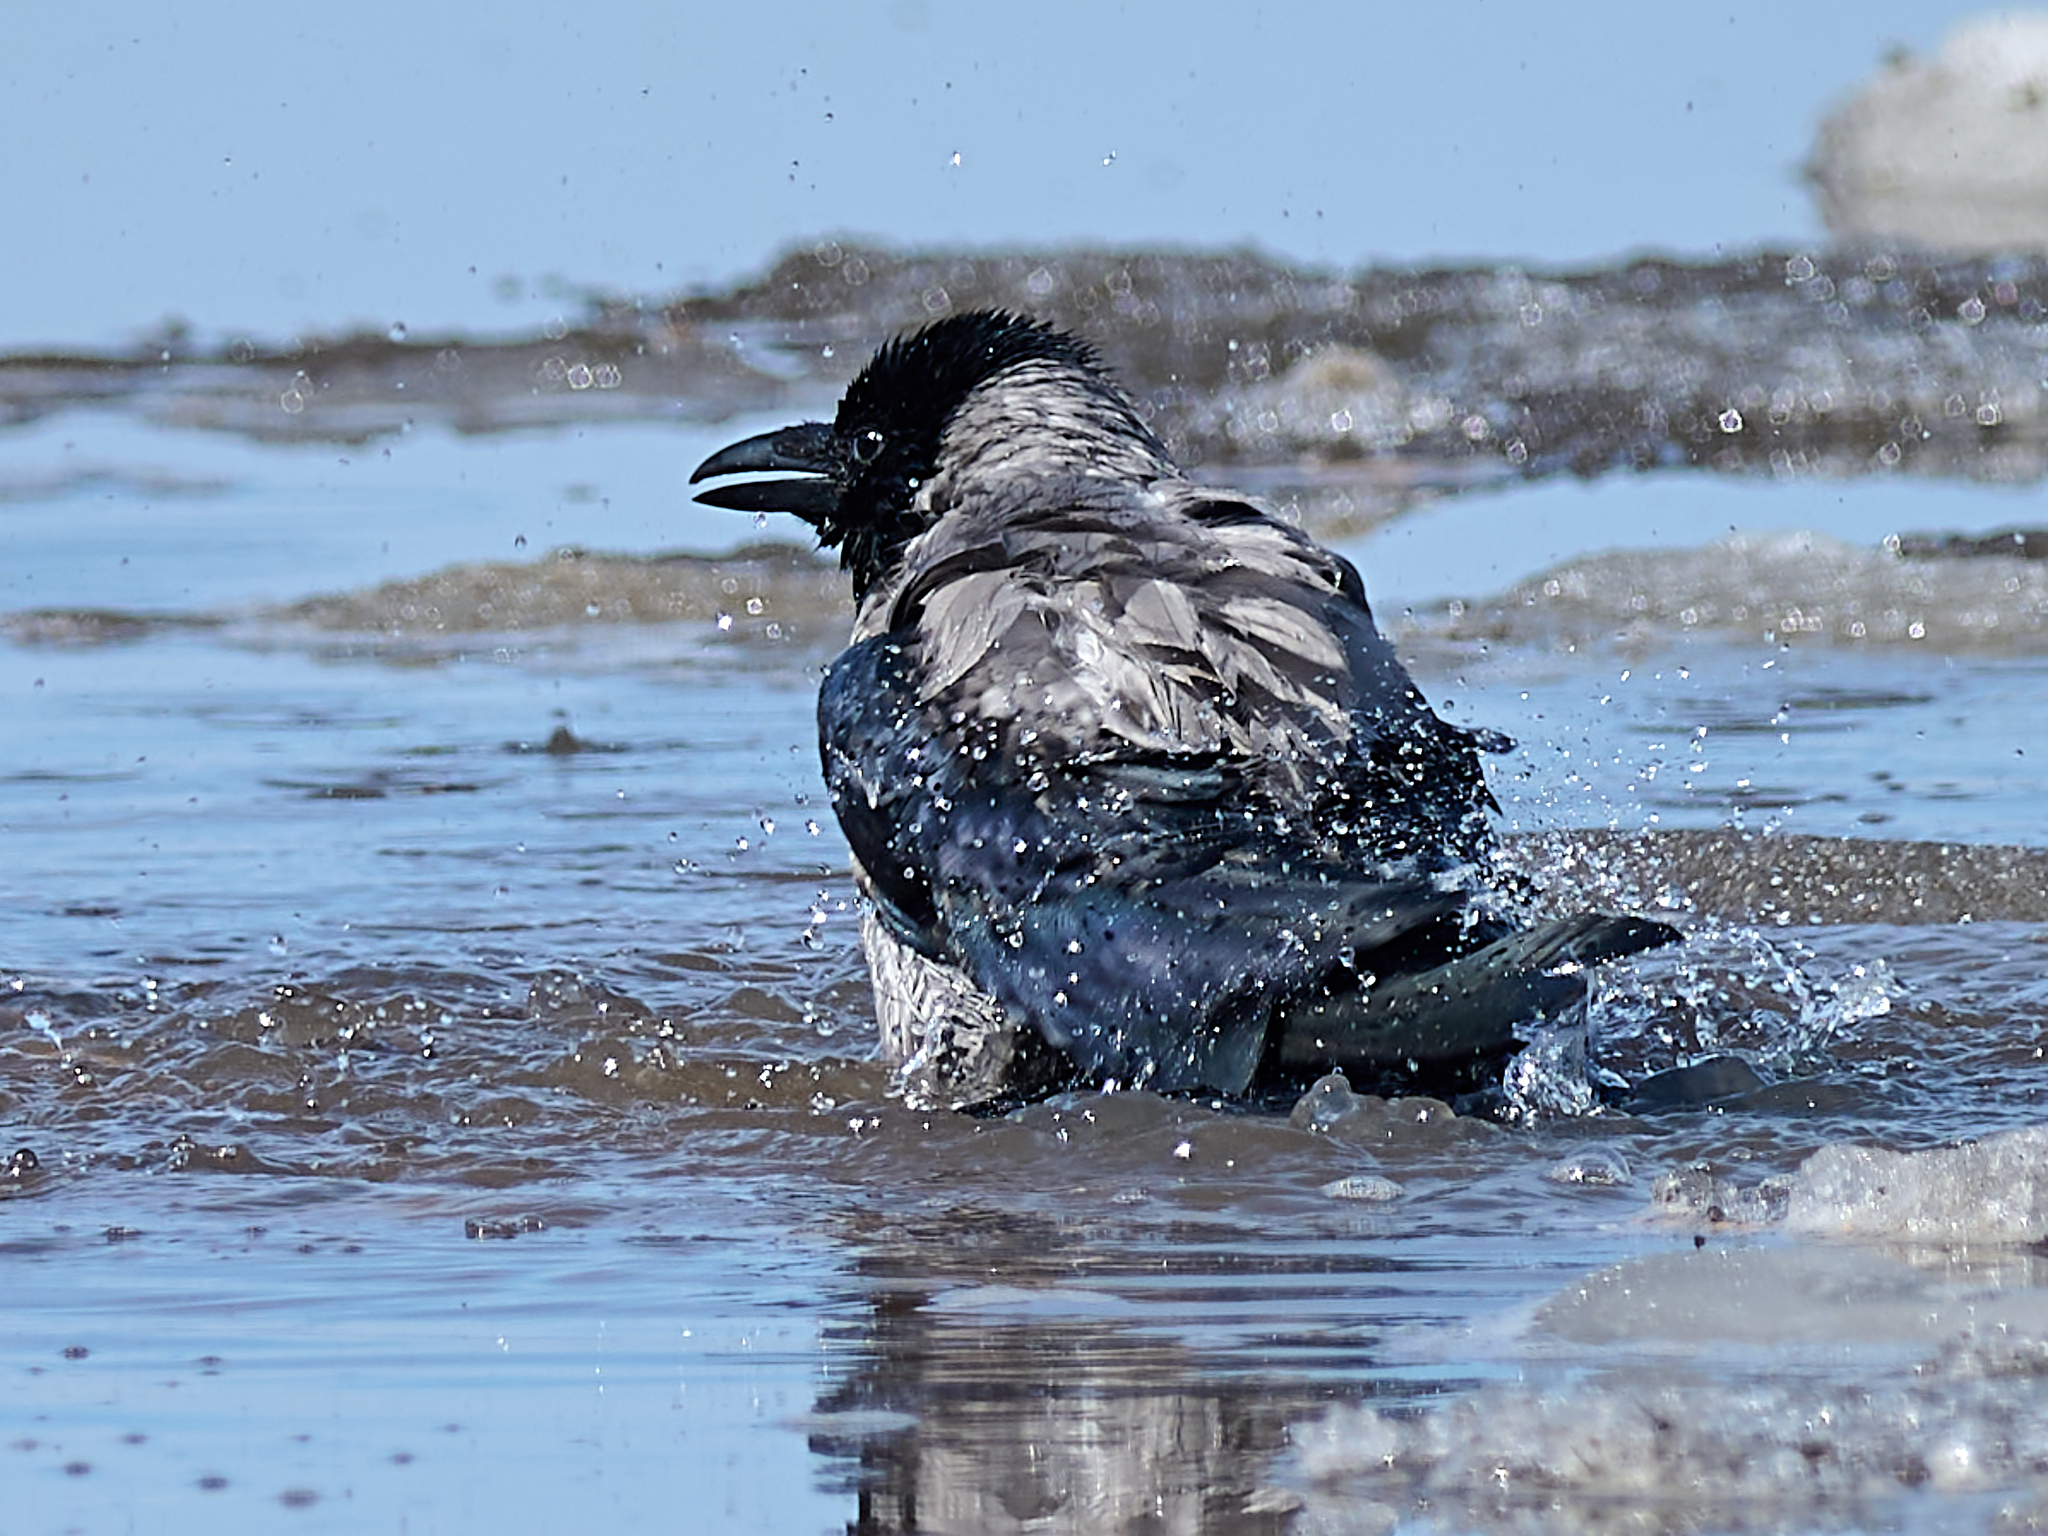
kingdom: Animalia
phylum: Chordata
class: Aves
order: Passeriformes
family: Corvidae
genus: Corvus
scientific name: Corvus cornix
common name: Hooded crow
